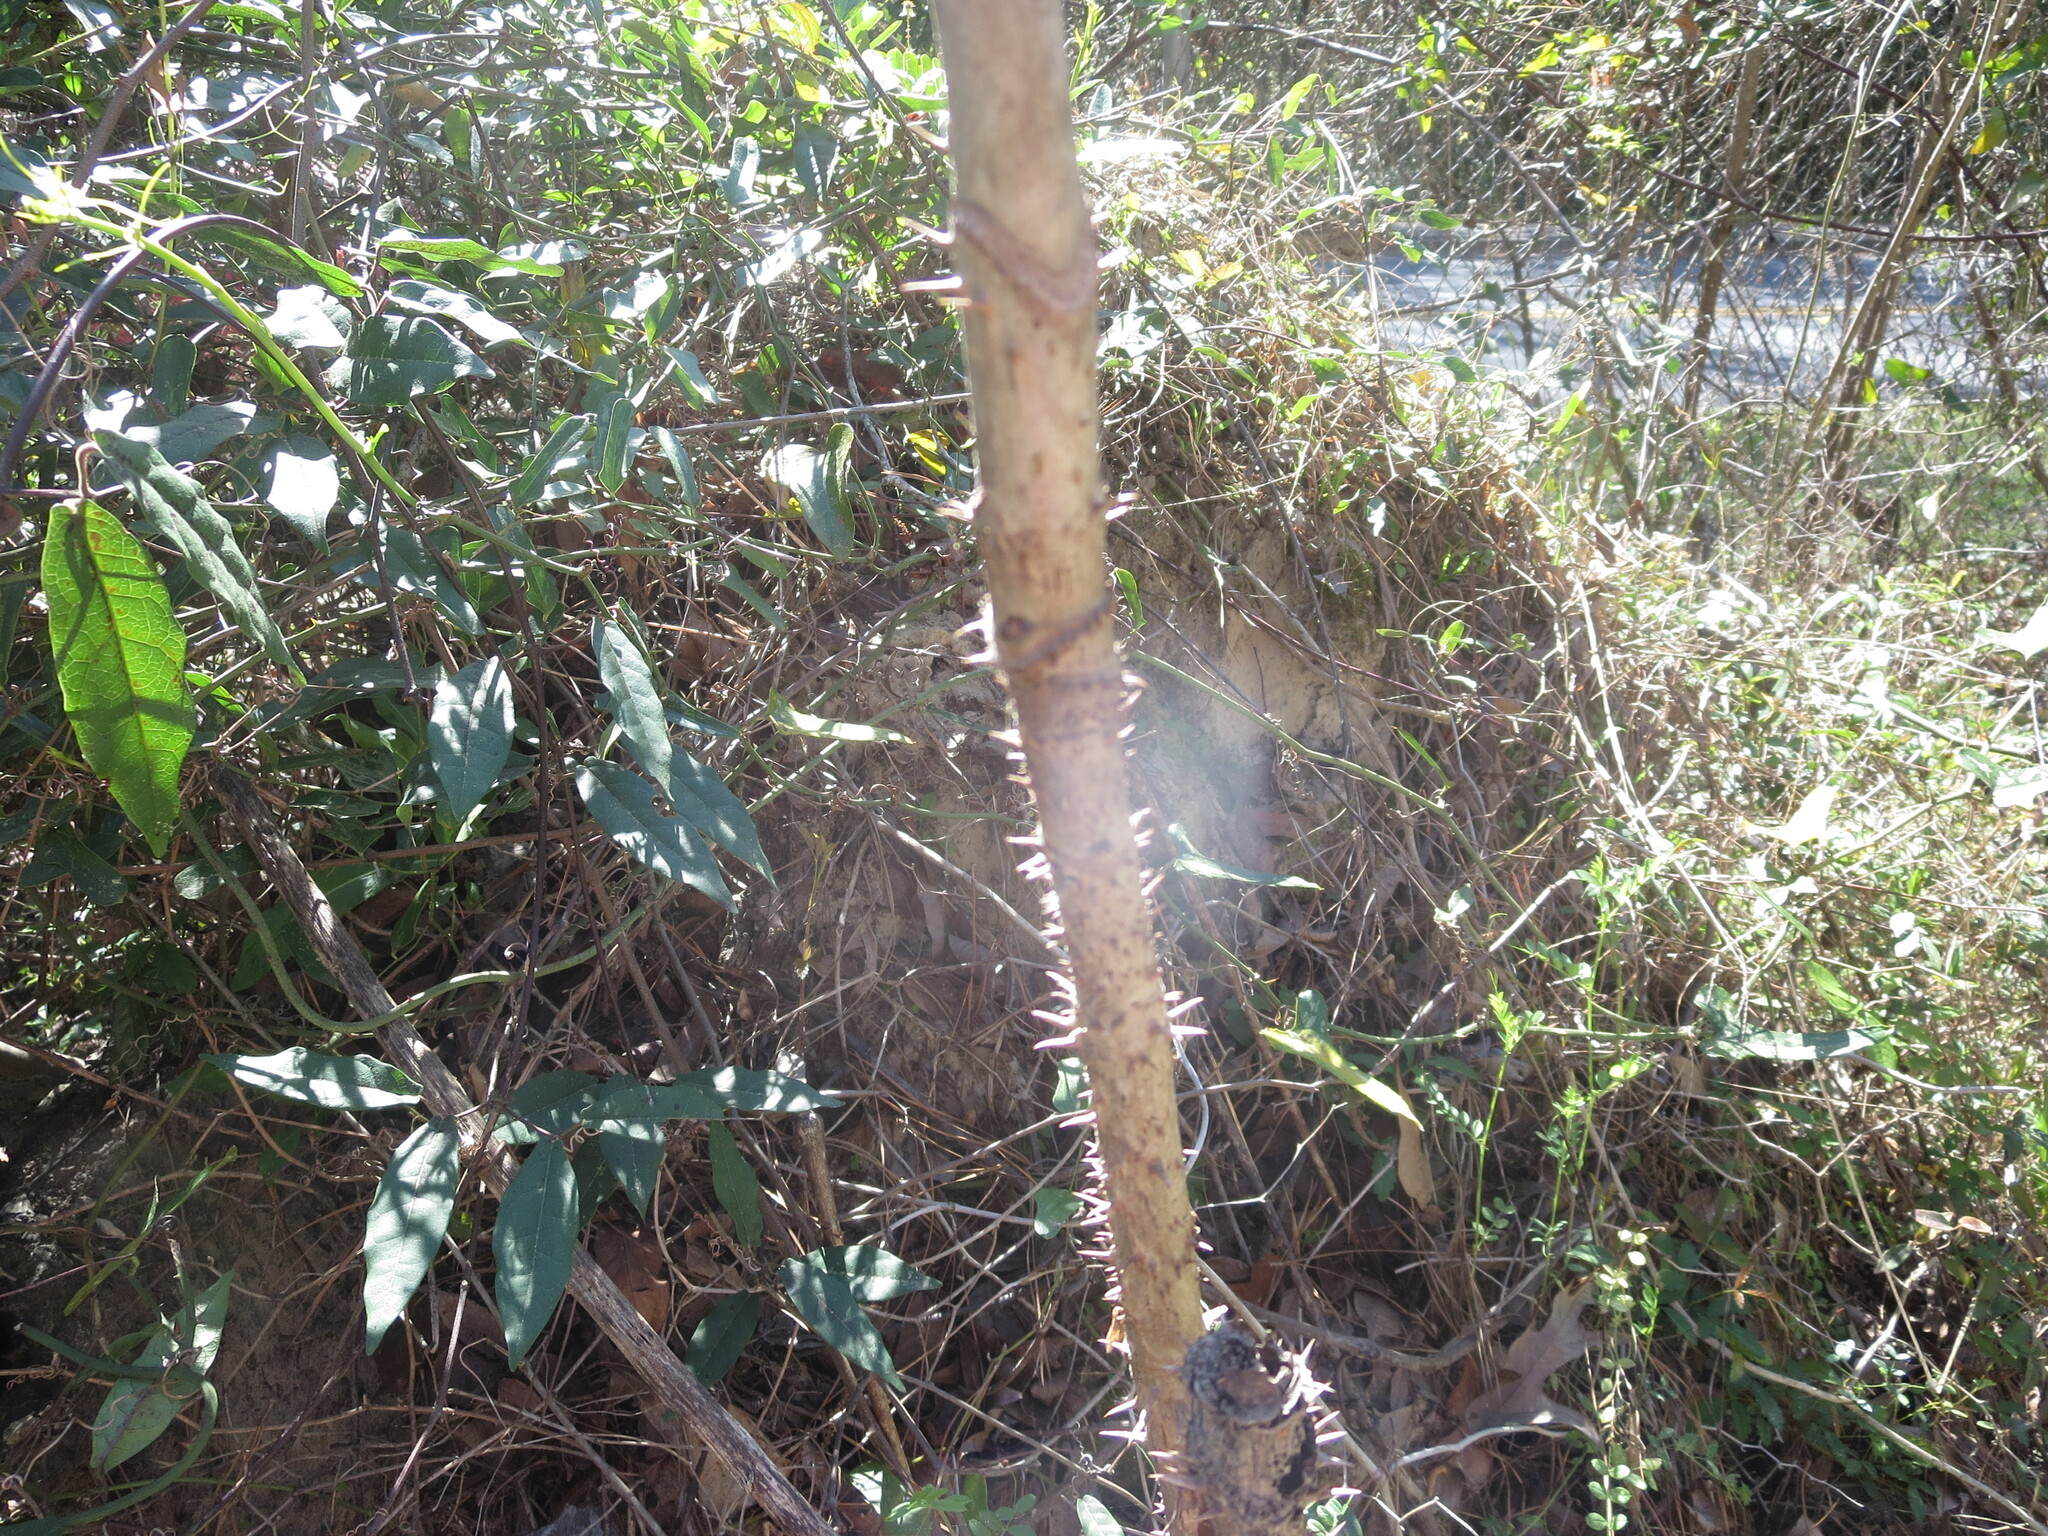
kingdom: Plantae
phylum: Tracheophyta
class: Magnoliopsida
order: Apiales
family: Araliaceae
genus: Aralia
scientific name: Aralia spinosa
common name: Hercules'-club
